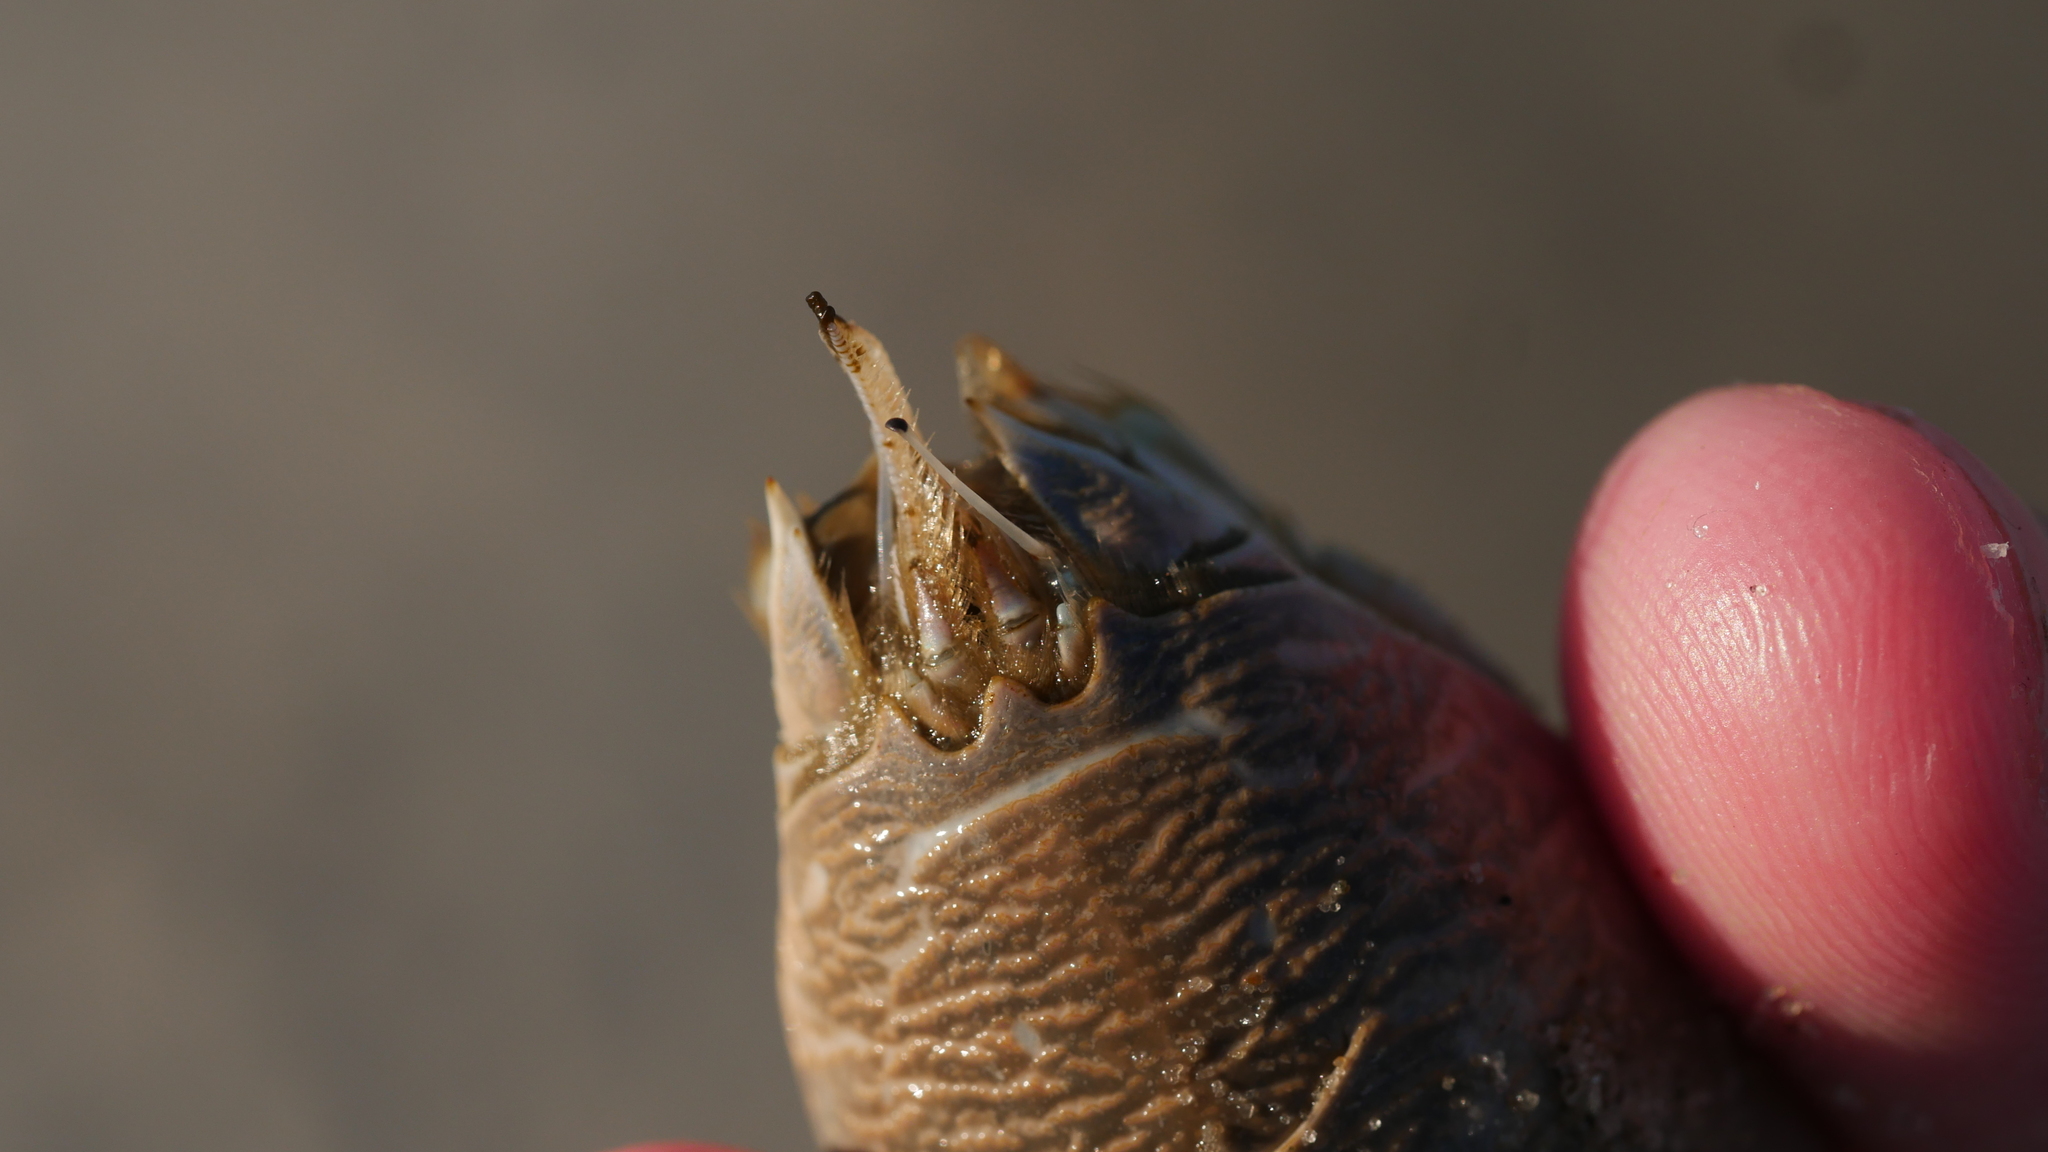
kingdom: Animalia
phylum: Arthropoda
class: Malacostraca
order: Decapoda
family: Hippidae
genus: Emerita
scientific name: Emerita talpoida
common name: Atlantic sand crab
